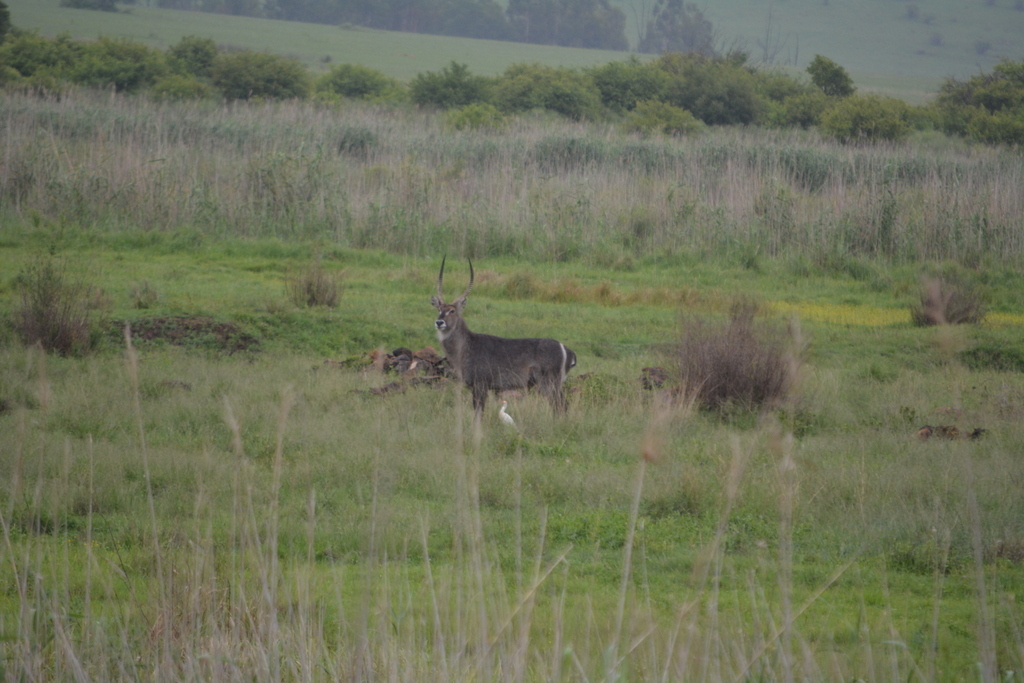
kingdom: Animalia
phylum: Chordata
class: Mammalia
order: Artiodactyla
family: Bovidae
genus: Kobus
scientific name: Kobus ellipsiprymnus
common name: Waterbuck
